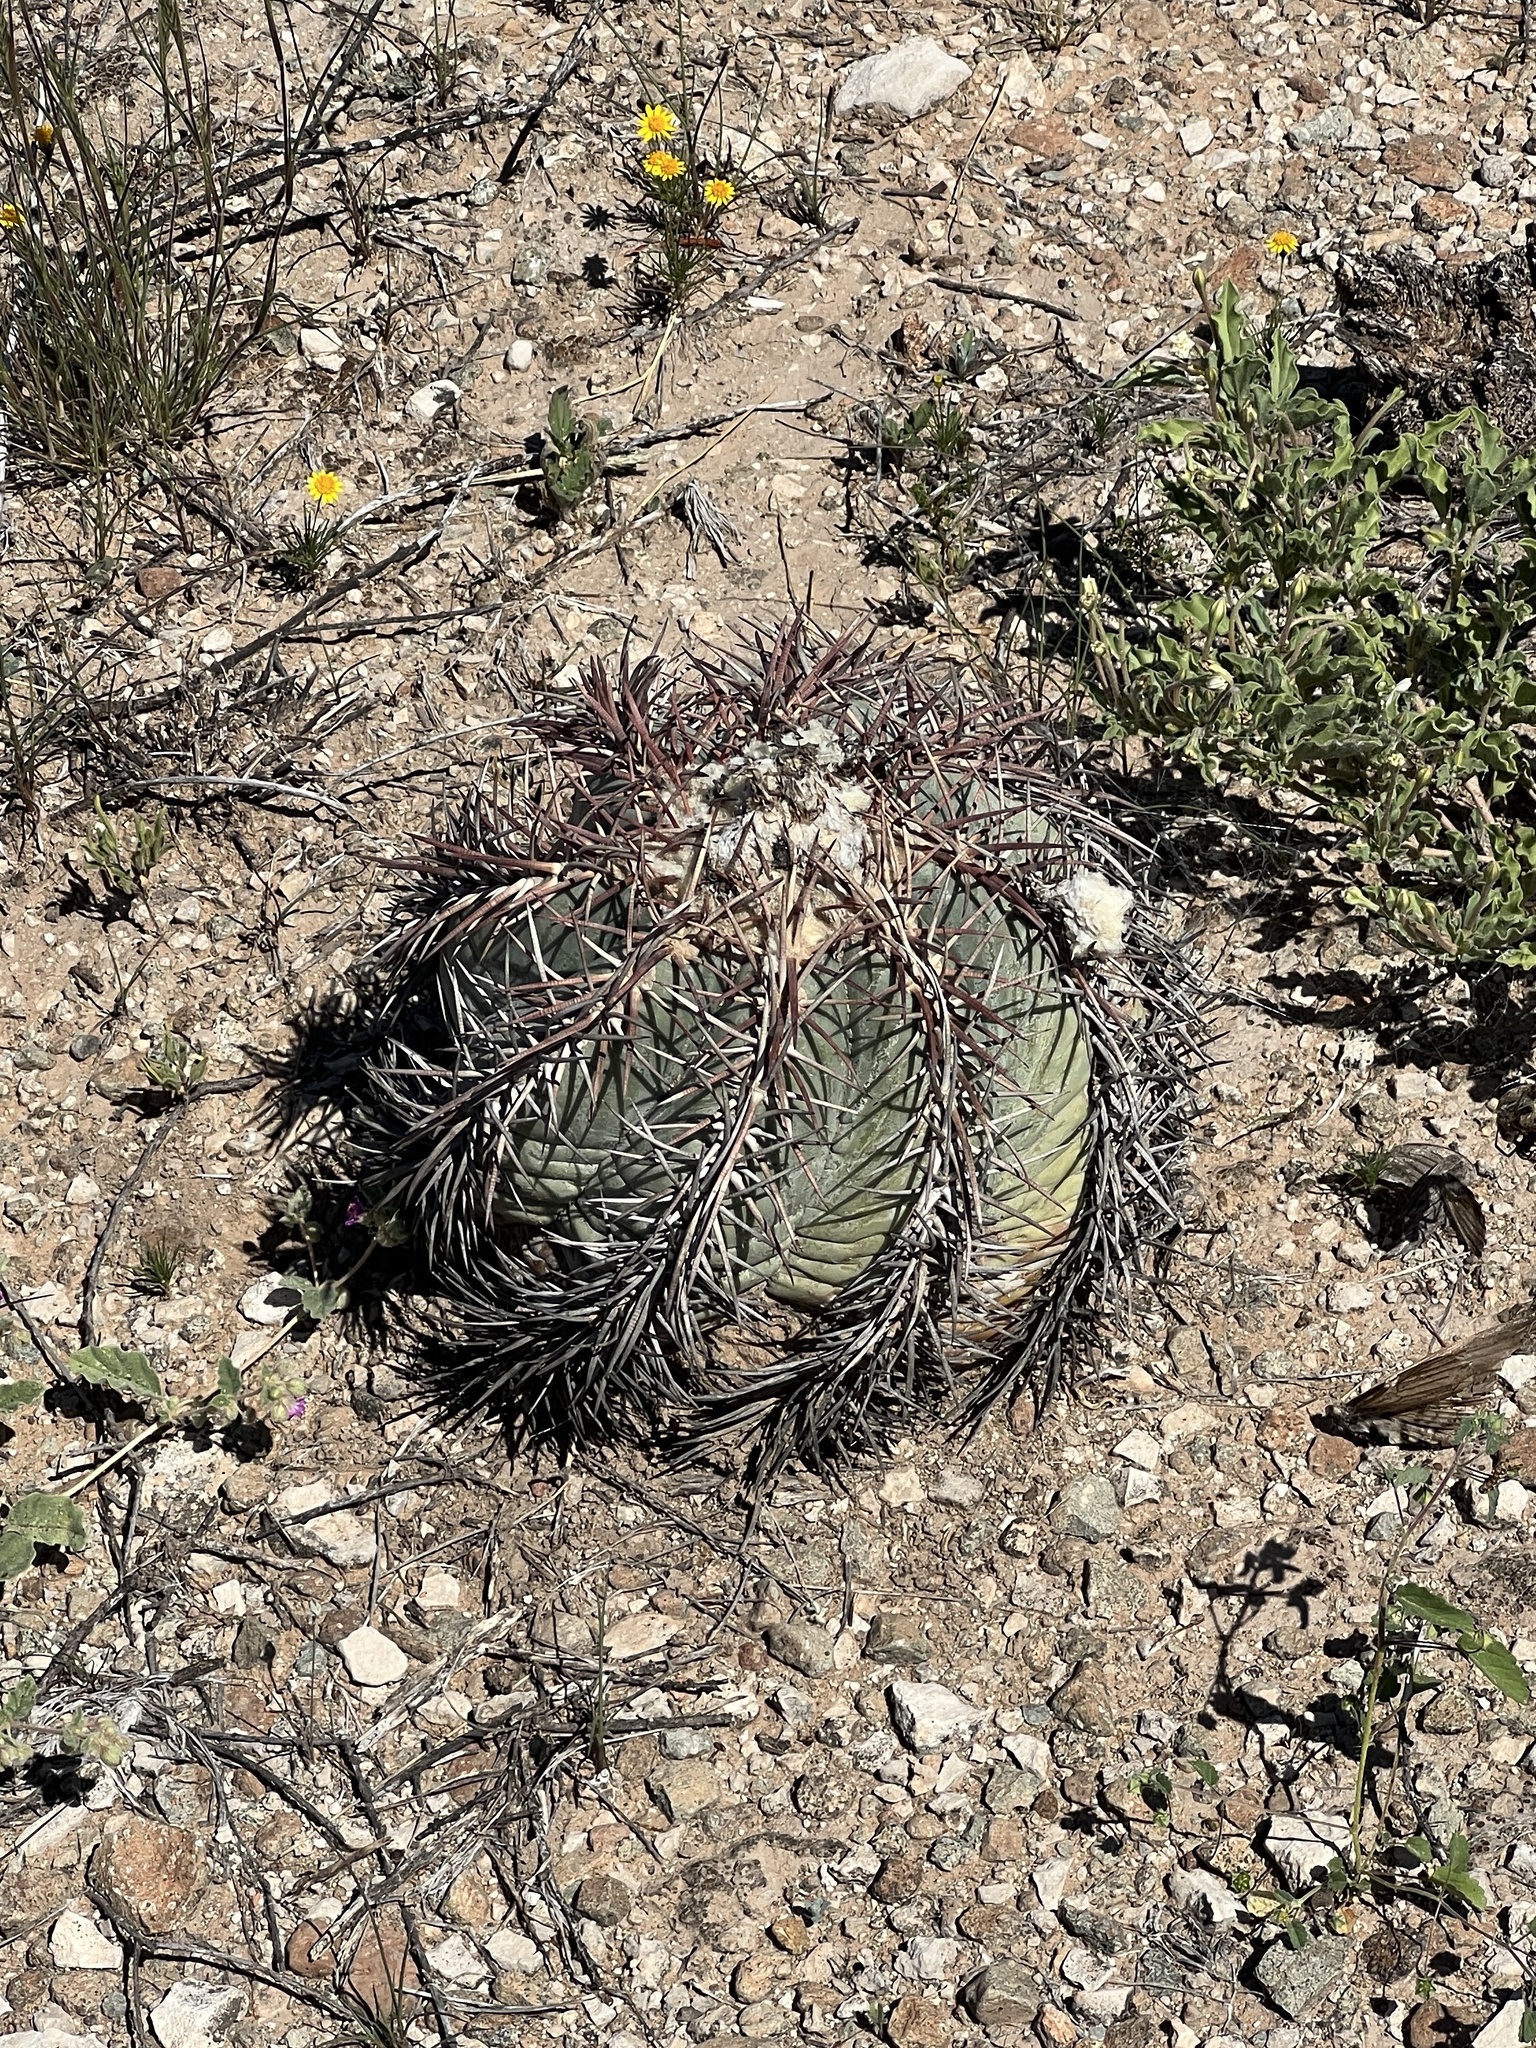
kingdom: Plantae
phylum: Tracheophyta
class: Magnoliopsida
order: Caryophyllales
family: Cactaceae
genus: Echinocactus
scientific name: Echinocactus horizonthalonius
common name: Devilshead
